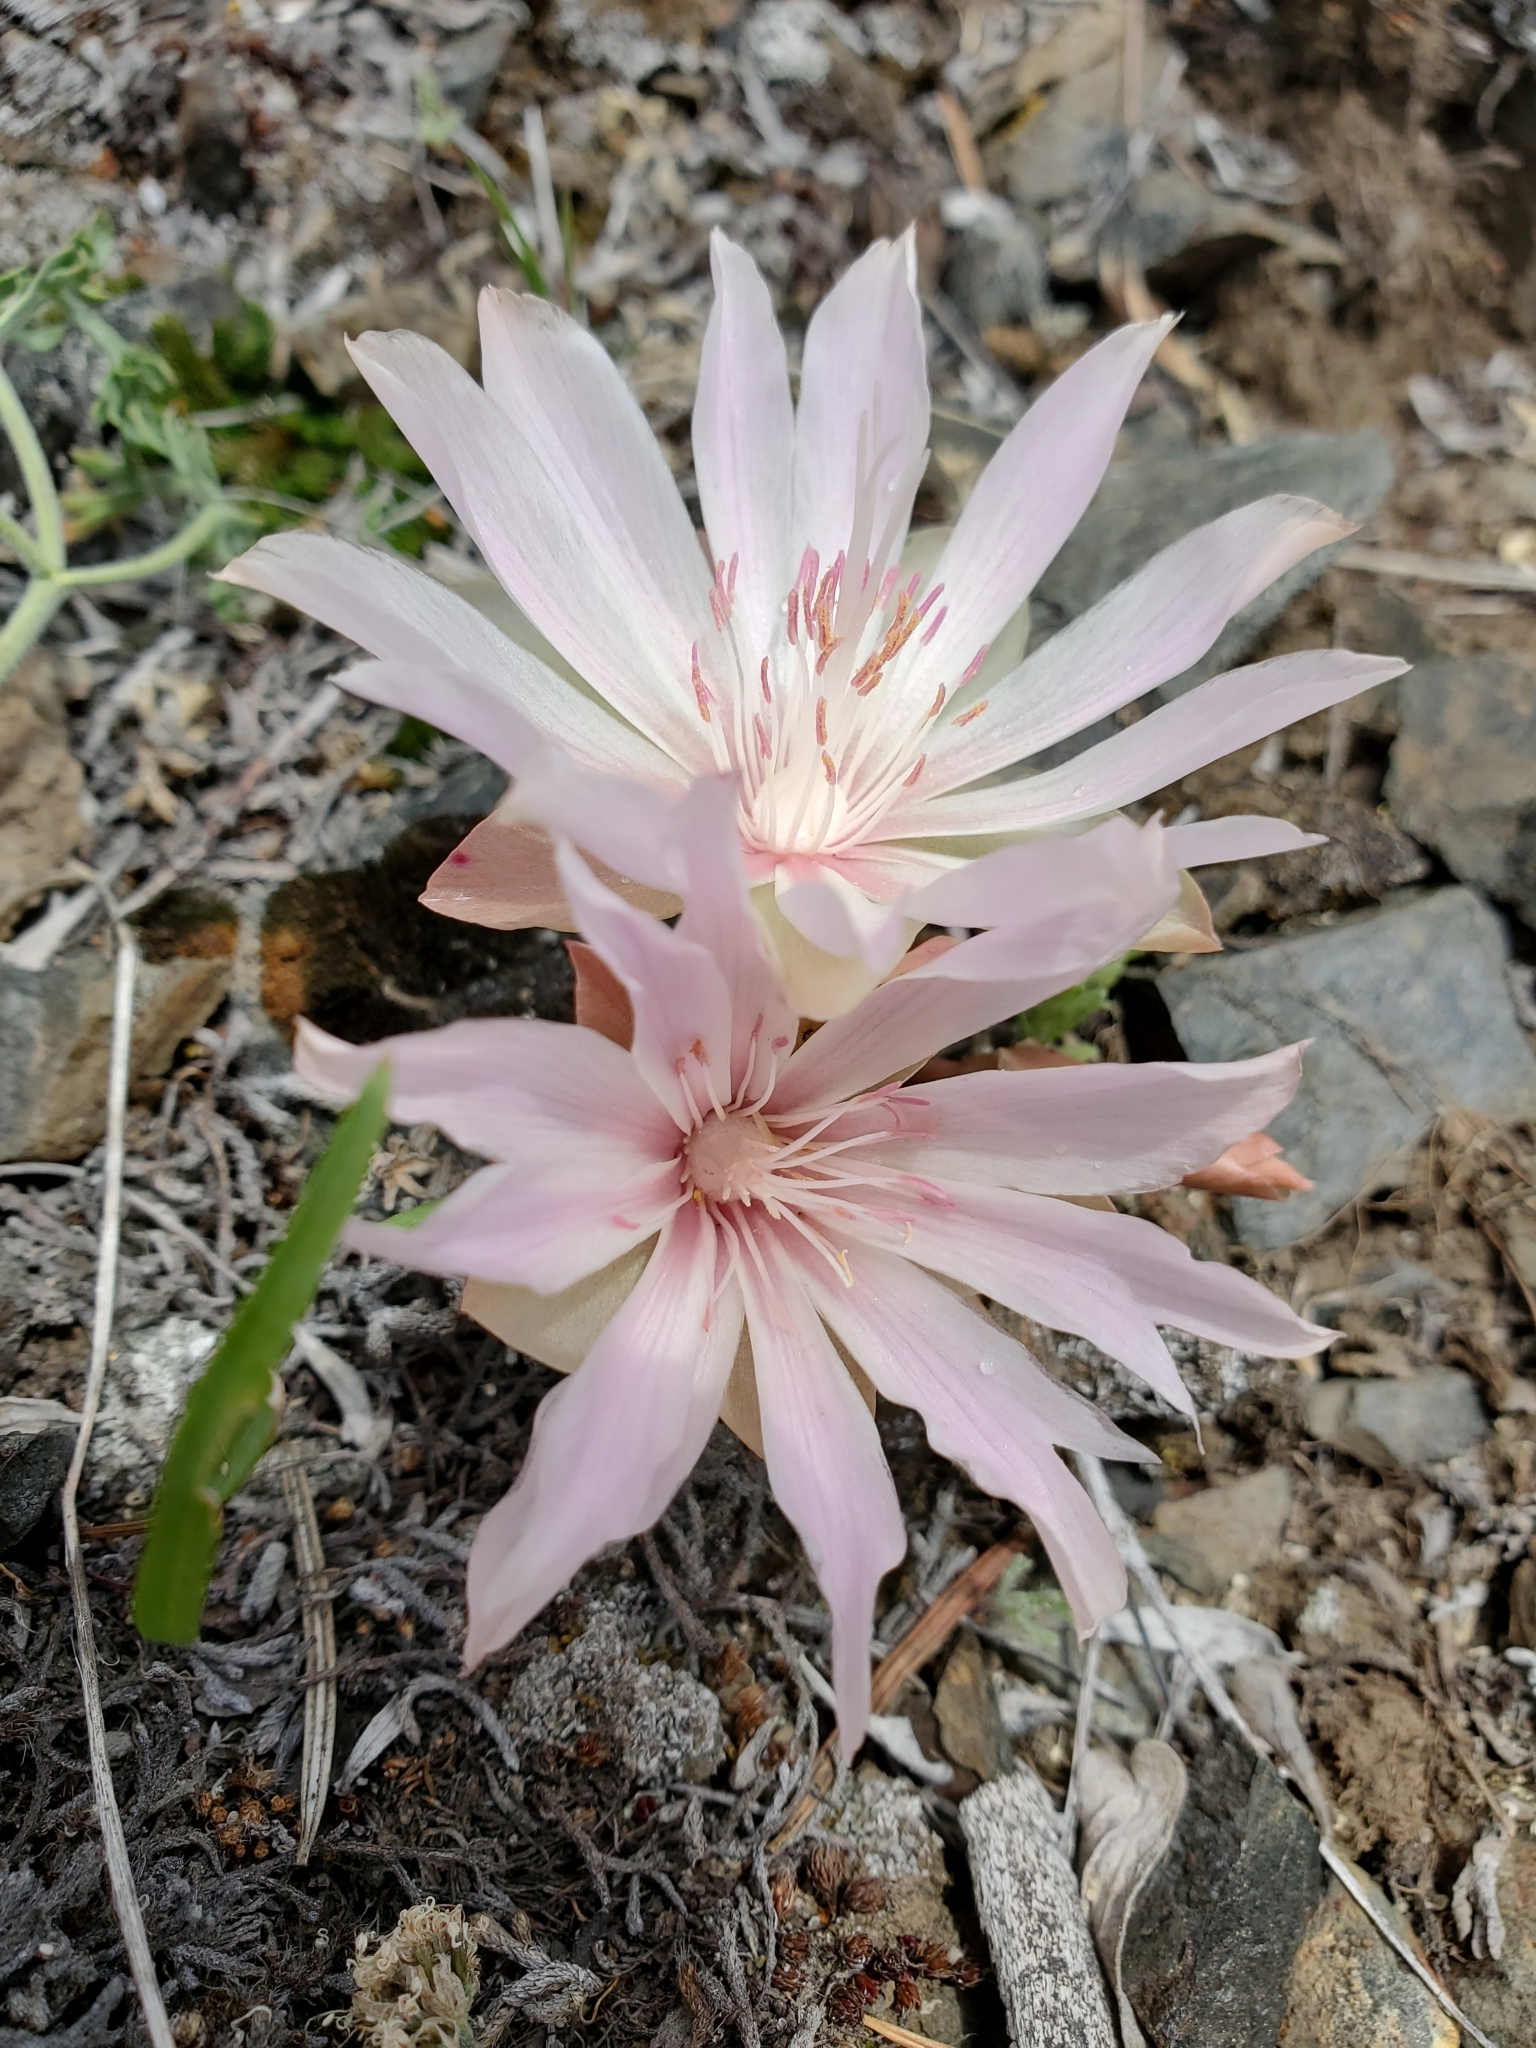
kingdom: Plantae
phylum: Tracheophyta
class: Magnoliopsida
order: Caryophyllales
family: Montiaceae
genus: Lewisia
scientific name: Lewisia rediviva
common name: Bitter-root
